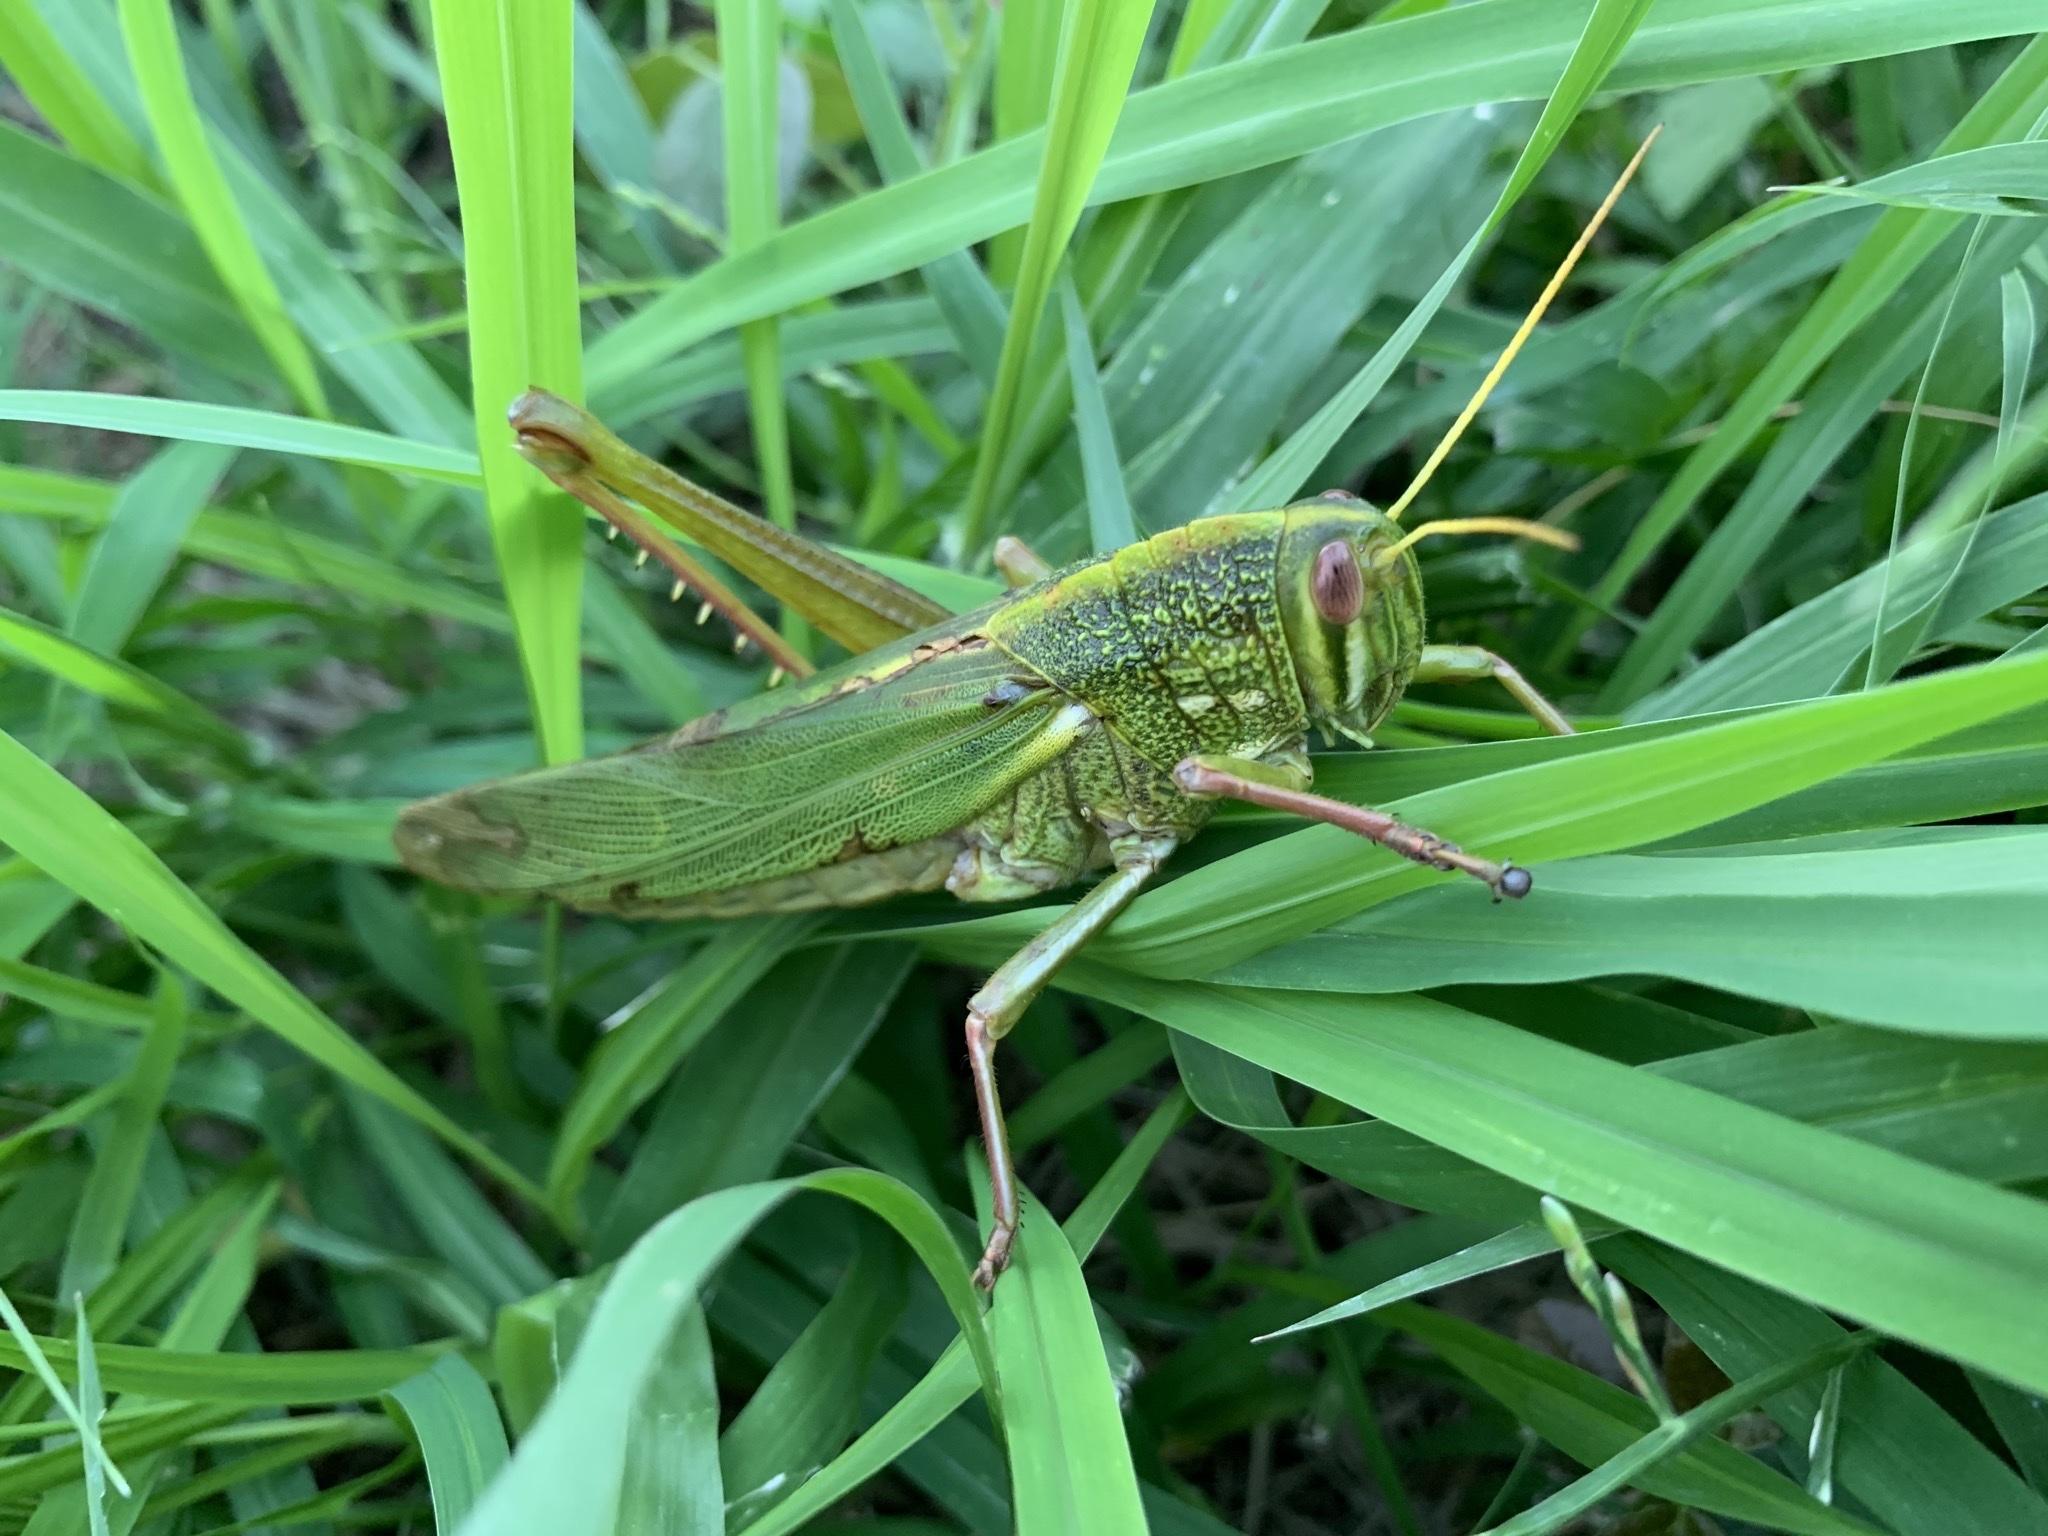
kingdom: Animalia
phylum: Arthropoda
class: Insecta
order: Orthoptera
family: Acrididae
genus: Chondracris
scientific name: Chondracris rosea
